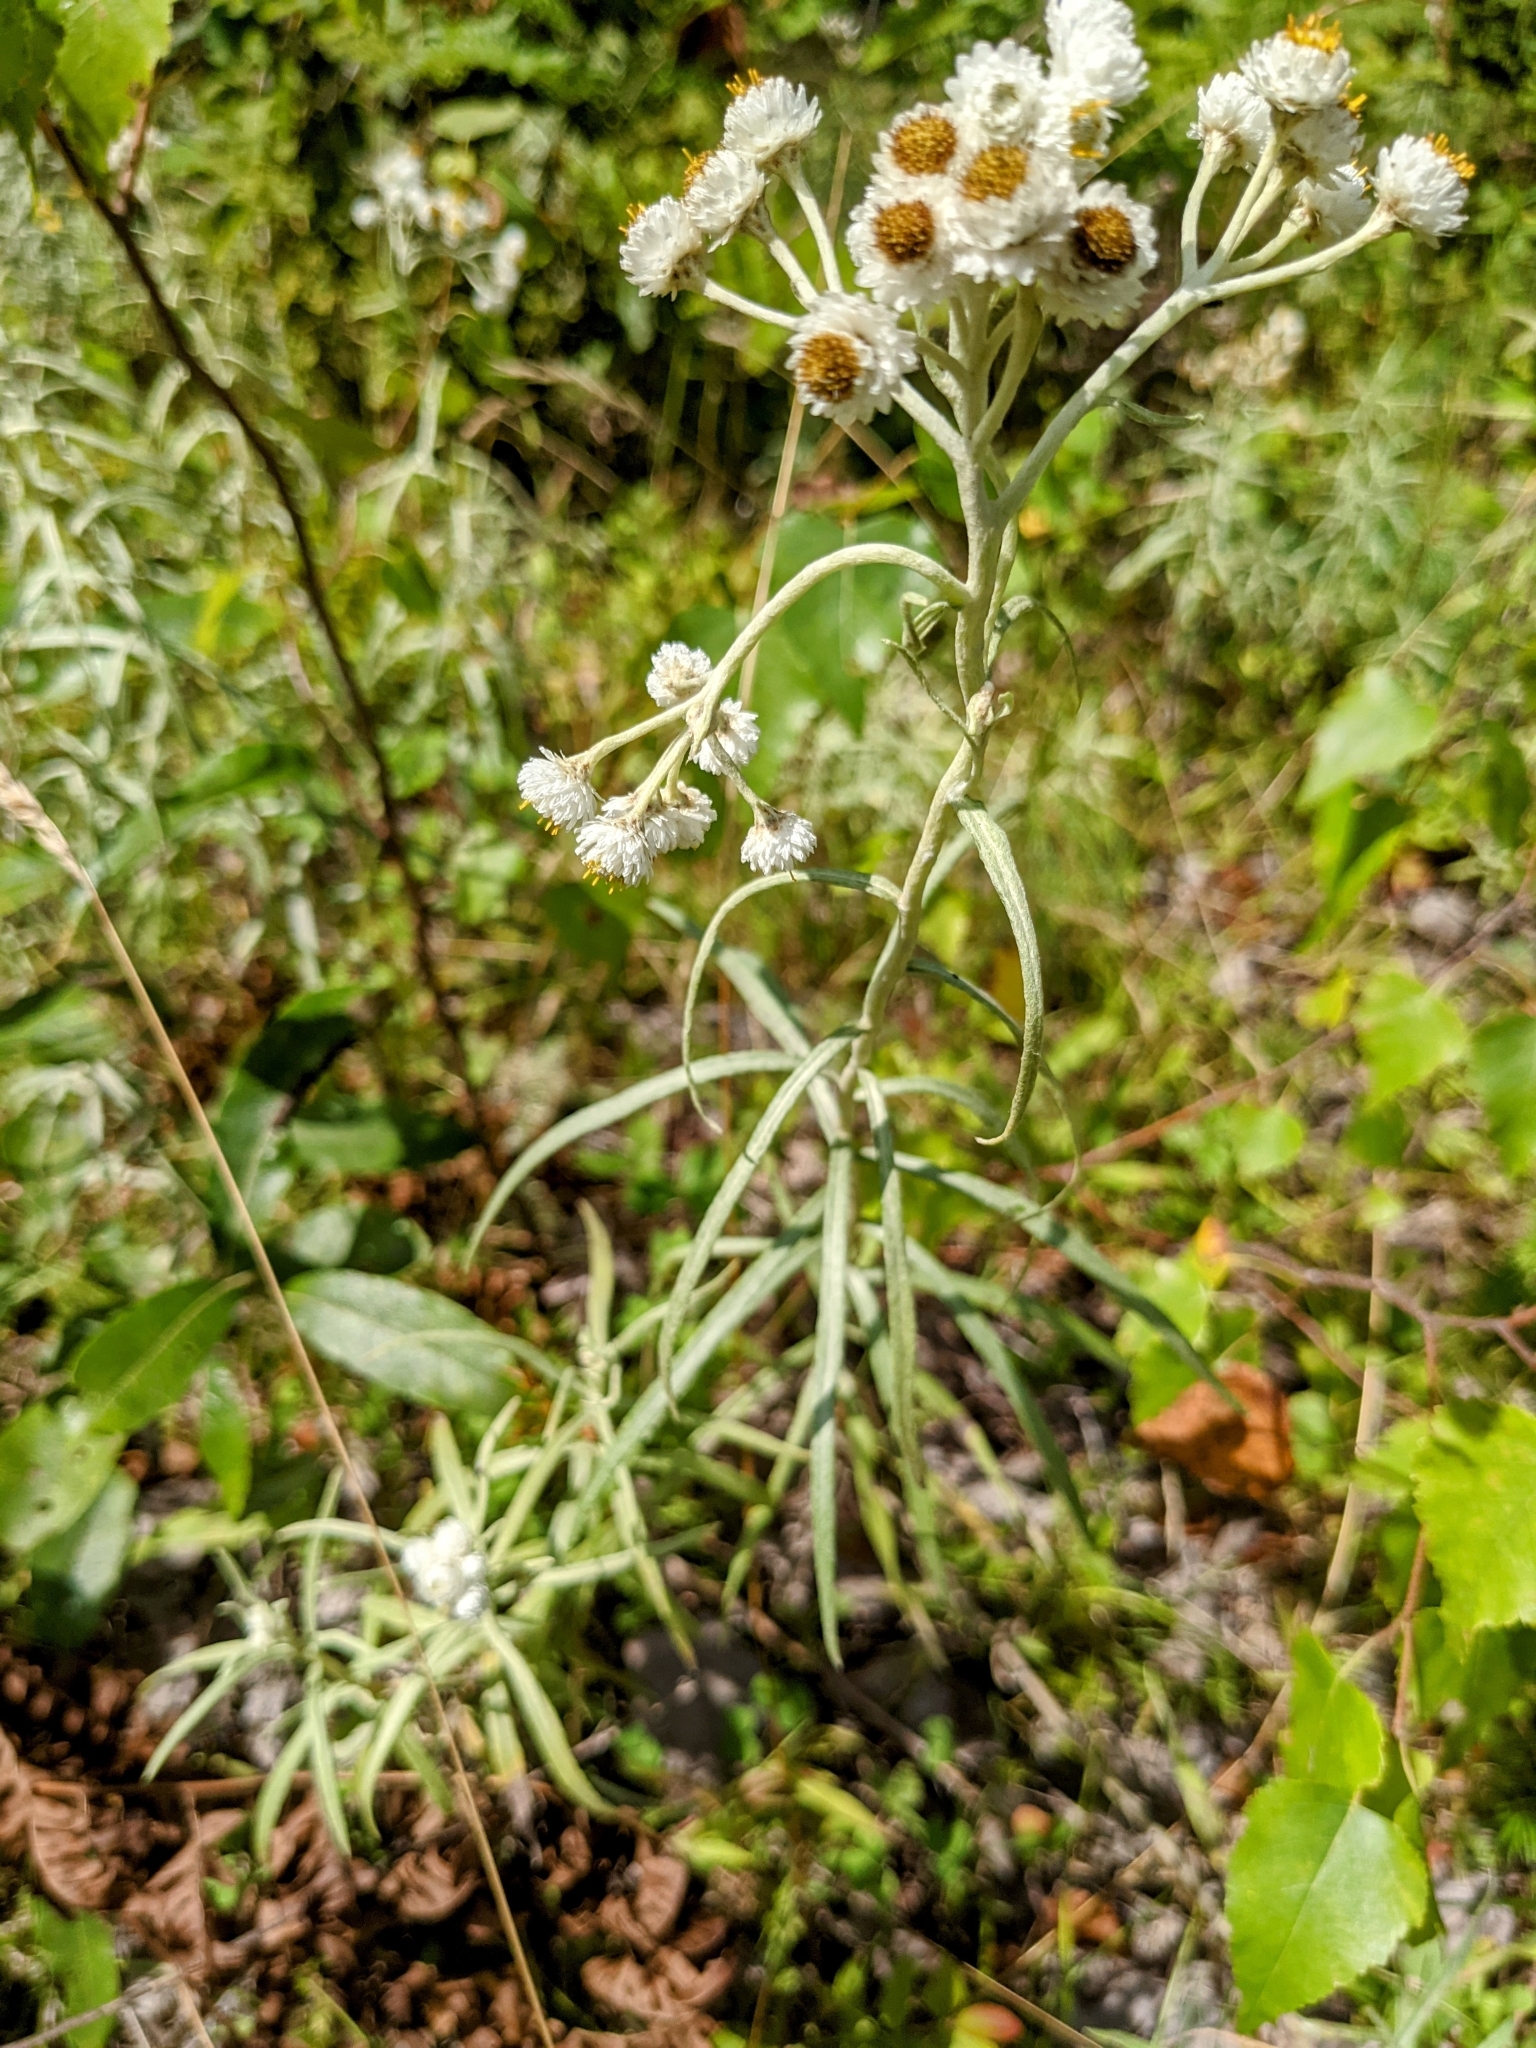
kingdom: Plantae
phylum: Tracheophyta
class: Magnoliopsida
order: Asterales
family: Asteraceae
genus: Anaphalis
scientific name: Anaphalis margaritacea
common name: Pearly everlasting
